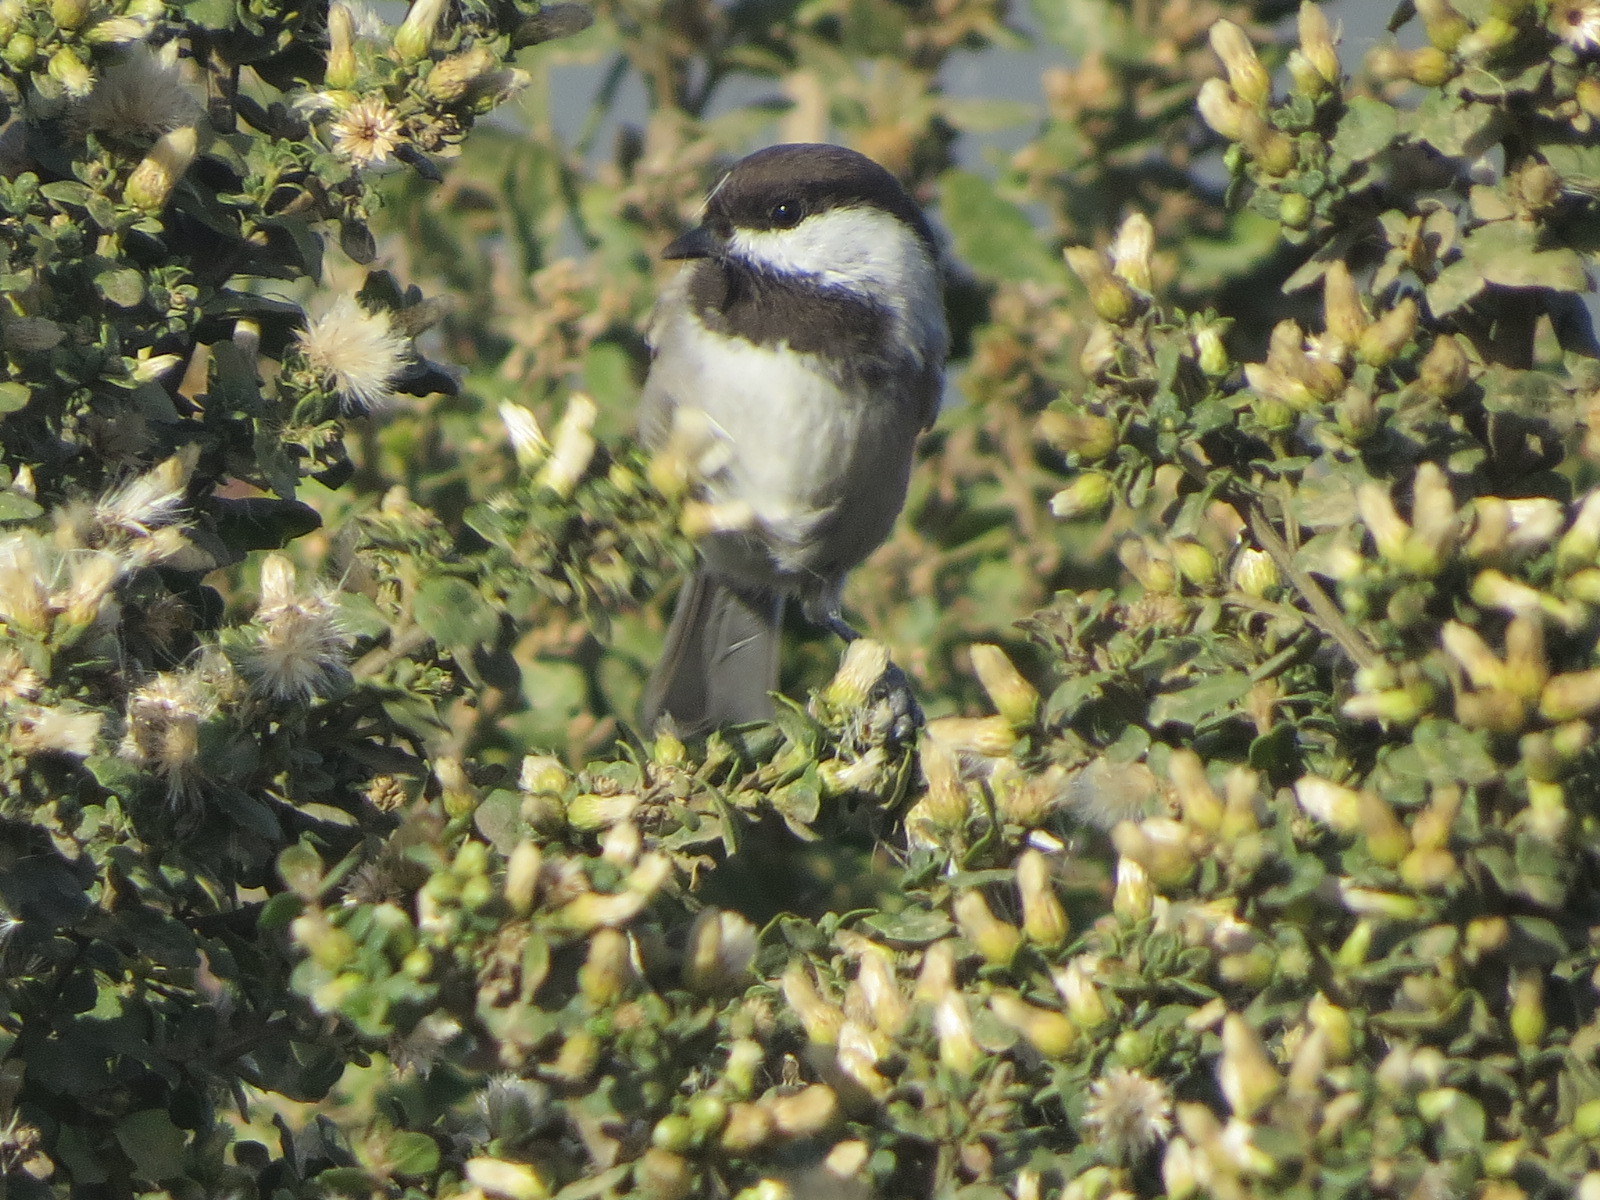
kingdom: Animalia
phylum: Chordata
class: Aves
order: Passeriformes
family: Paridae
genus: Poecile
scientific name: Poecile rufescens
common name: Chestnut-backed chickadee
